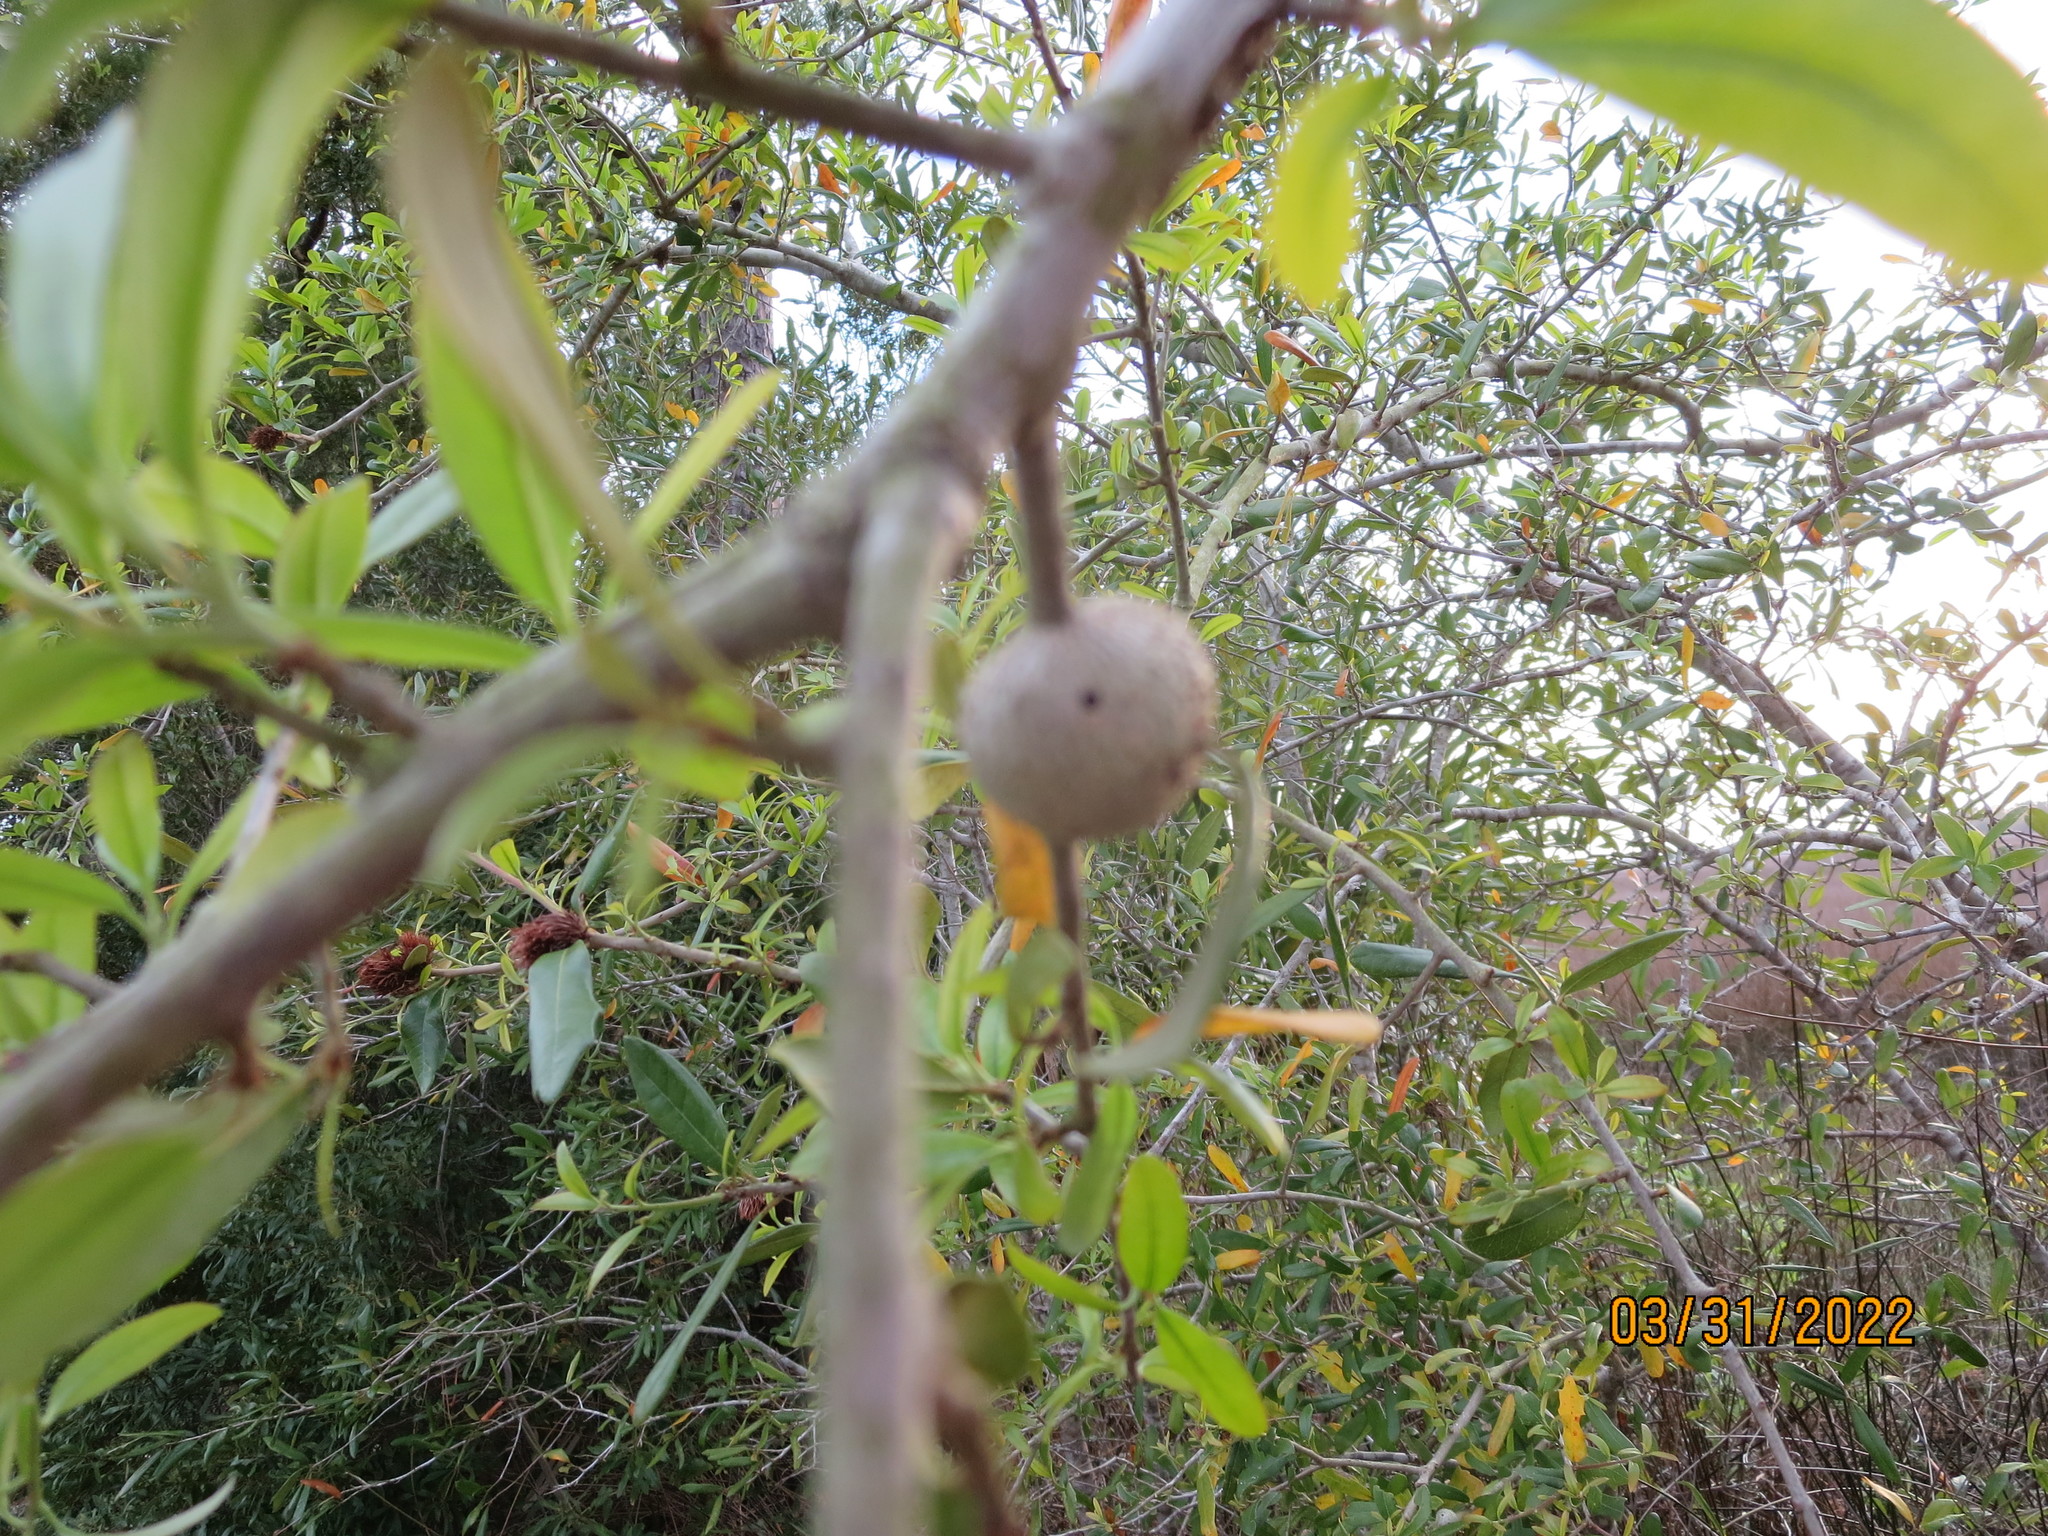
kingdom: Animalia
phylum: Arthropoda
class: Insecta
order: Hymenoptera
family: Cynipidae
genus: Callirhytis
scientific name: Callirhytis
